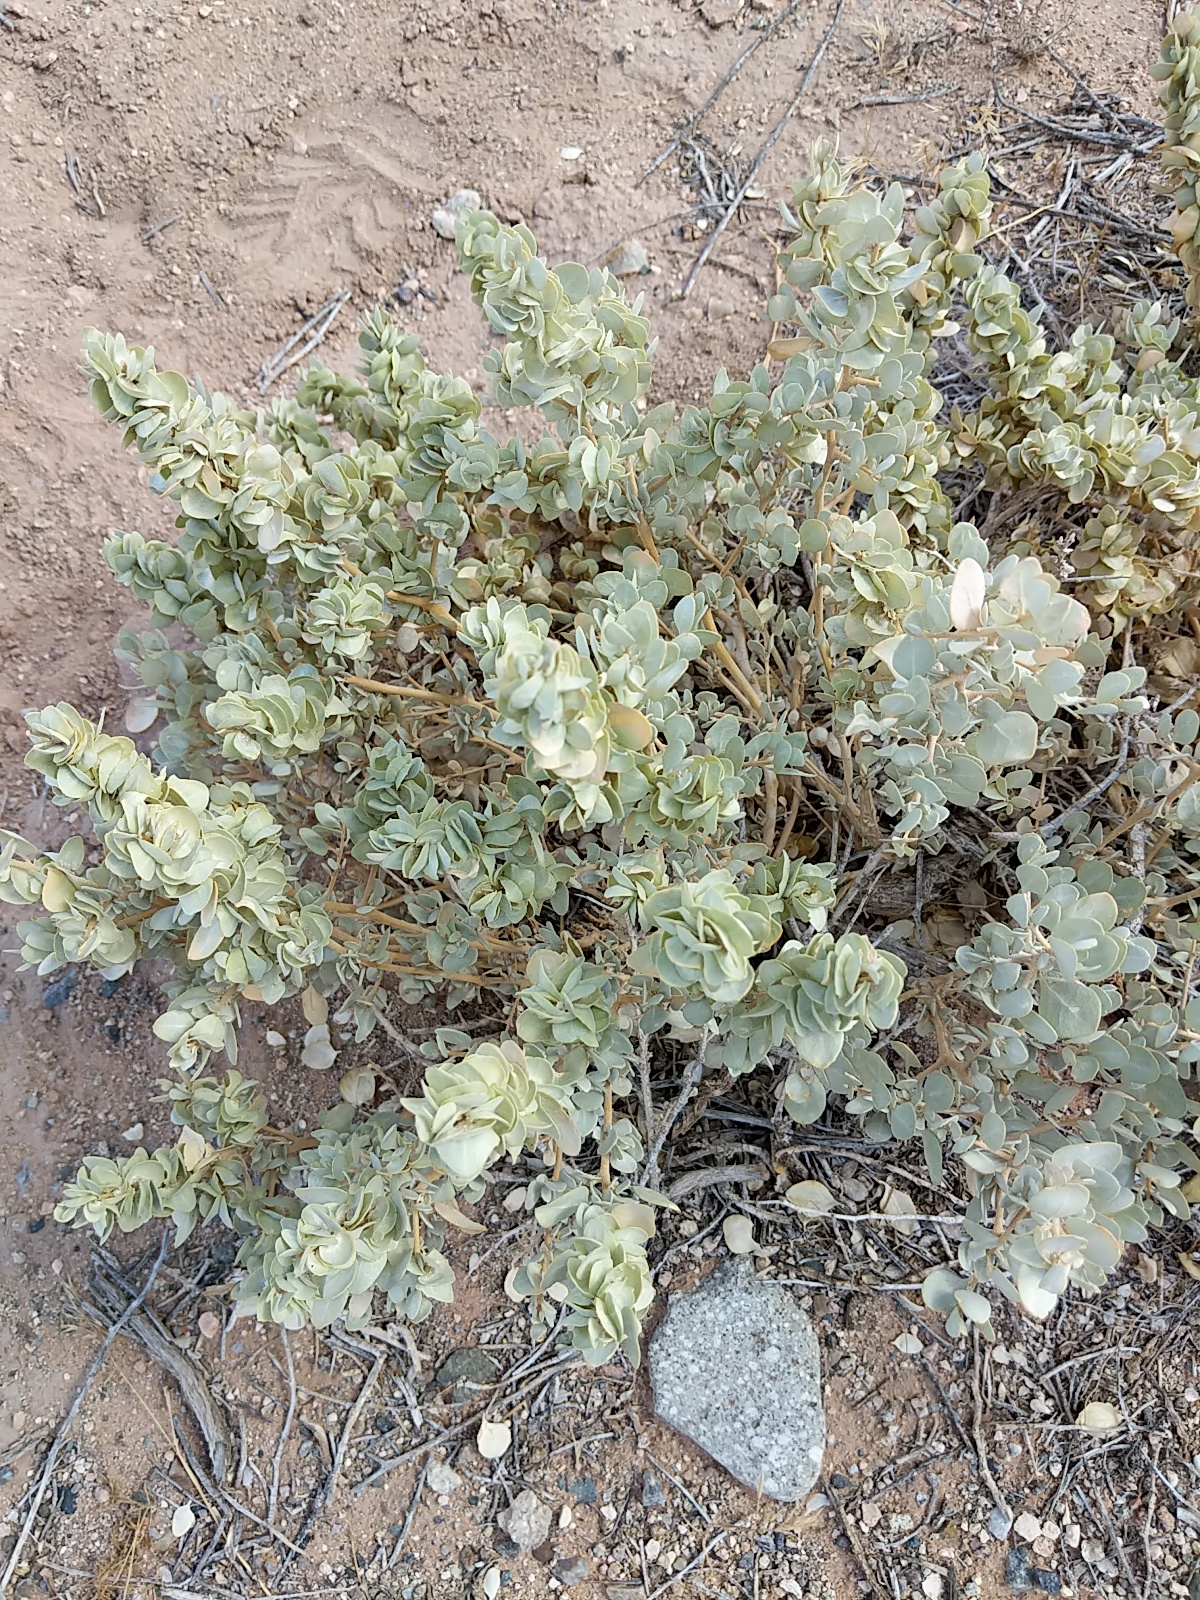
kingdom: Plantae
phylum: Tracheophyta
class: Magnoliopsida
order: Caryophyllales
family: Amaranthaceae
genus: Atriplex
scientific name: Atriplex confertifolia
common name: Shadscale
